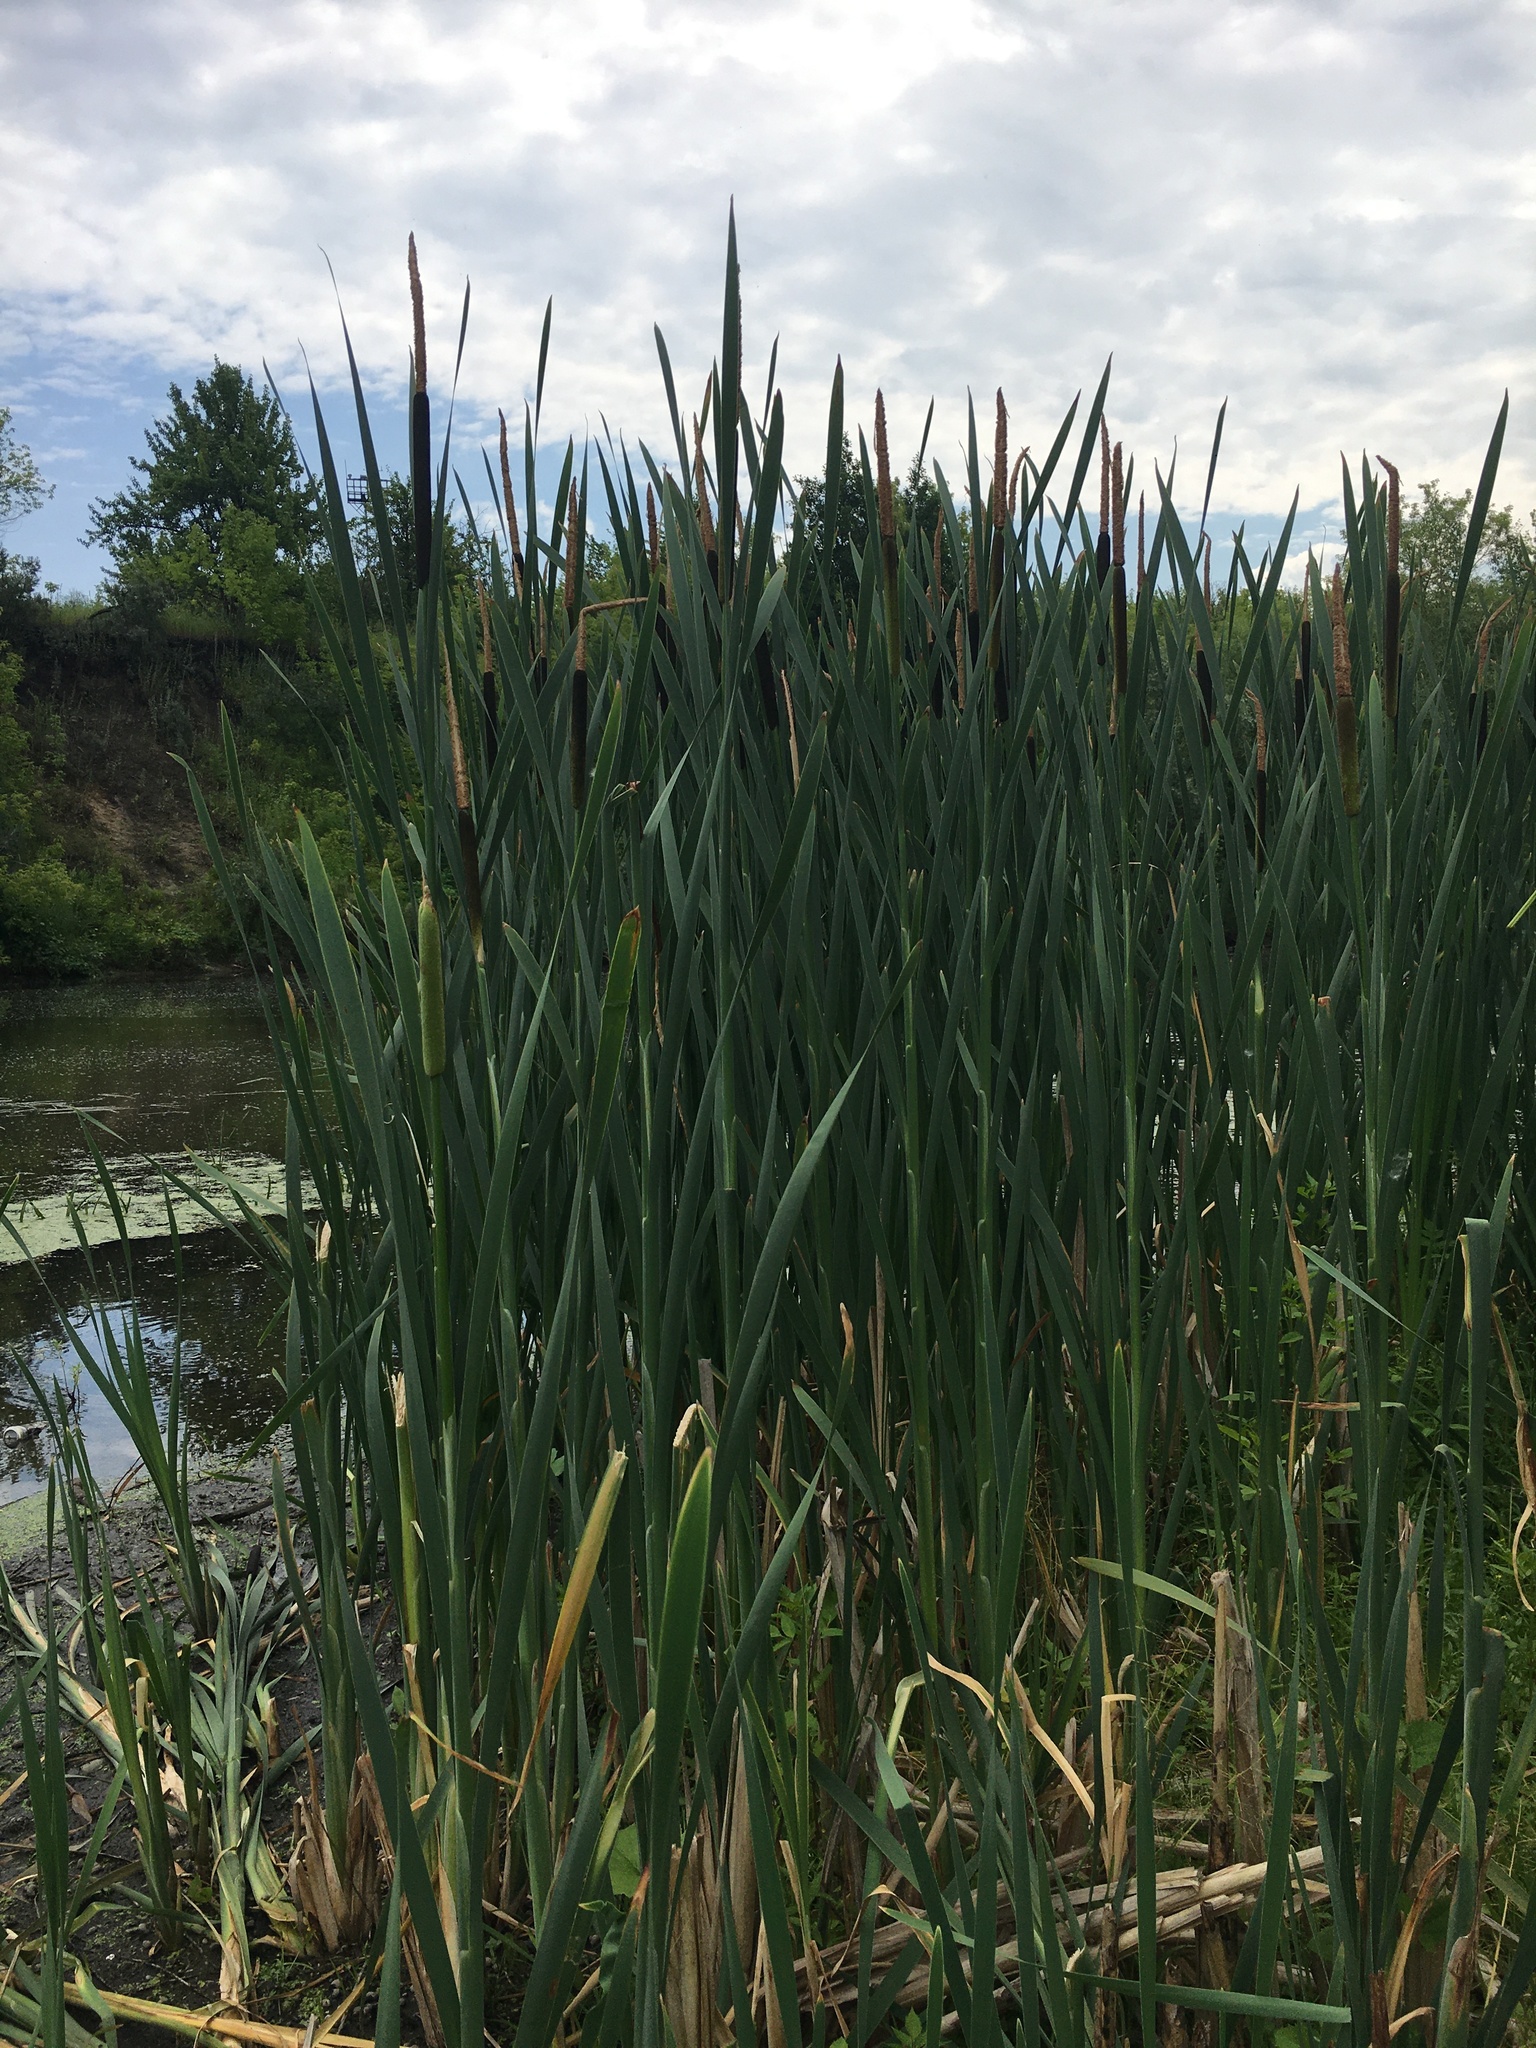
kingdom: Plantae
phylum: Tracheophyta
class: Liliopsida
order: Poales
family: Typhaceae
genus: Typha
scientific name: Typha latifolia
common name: Broadleaf cattail
